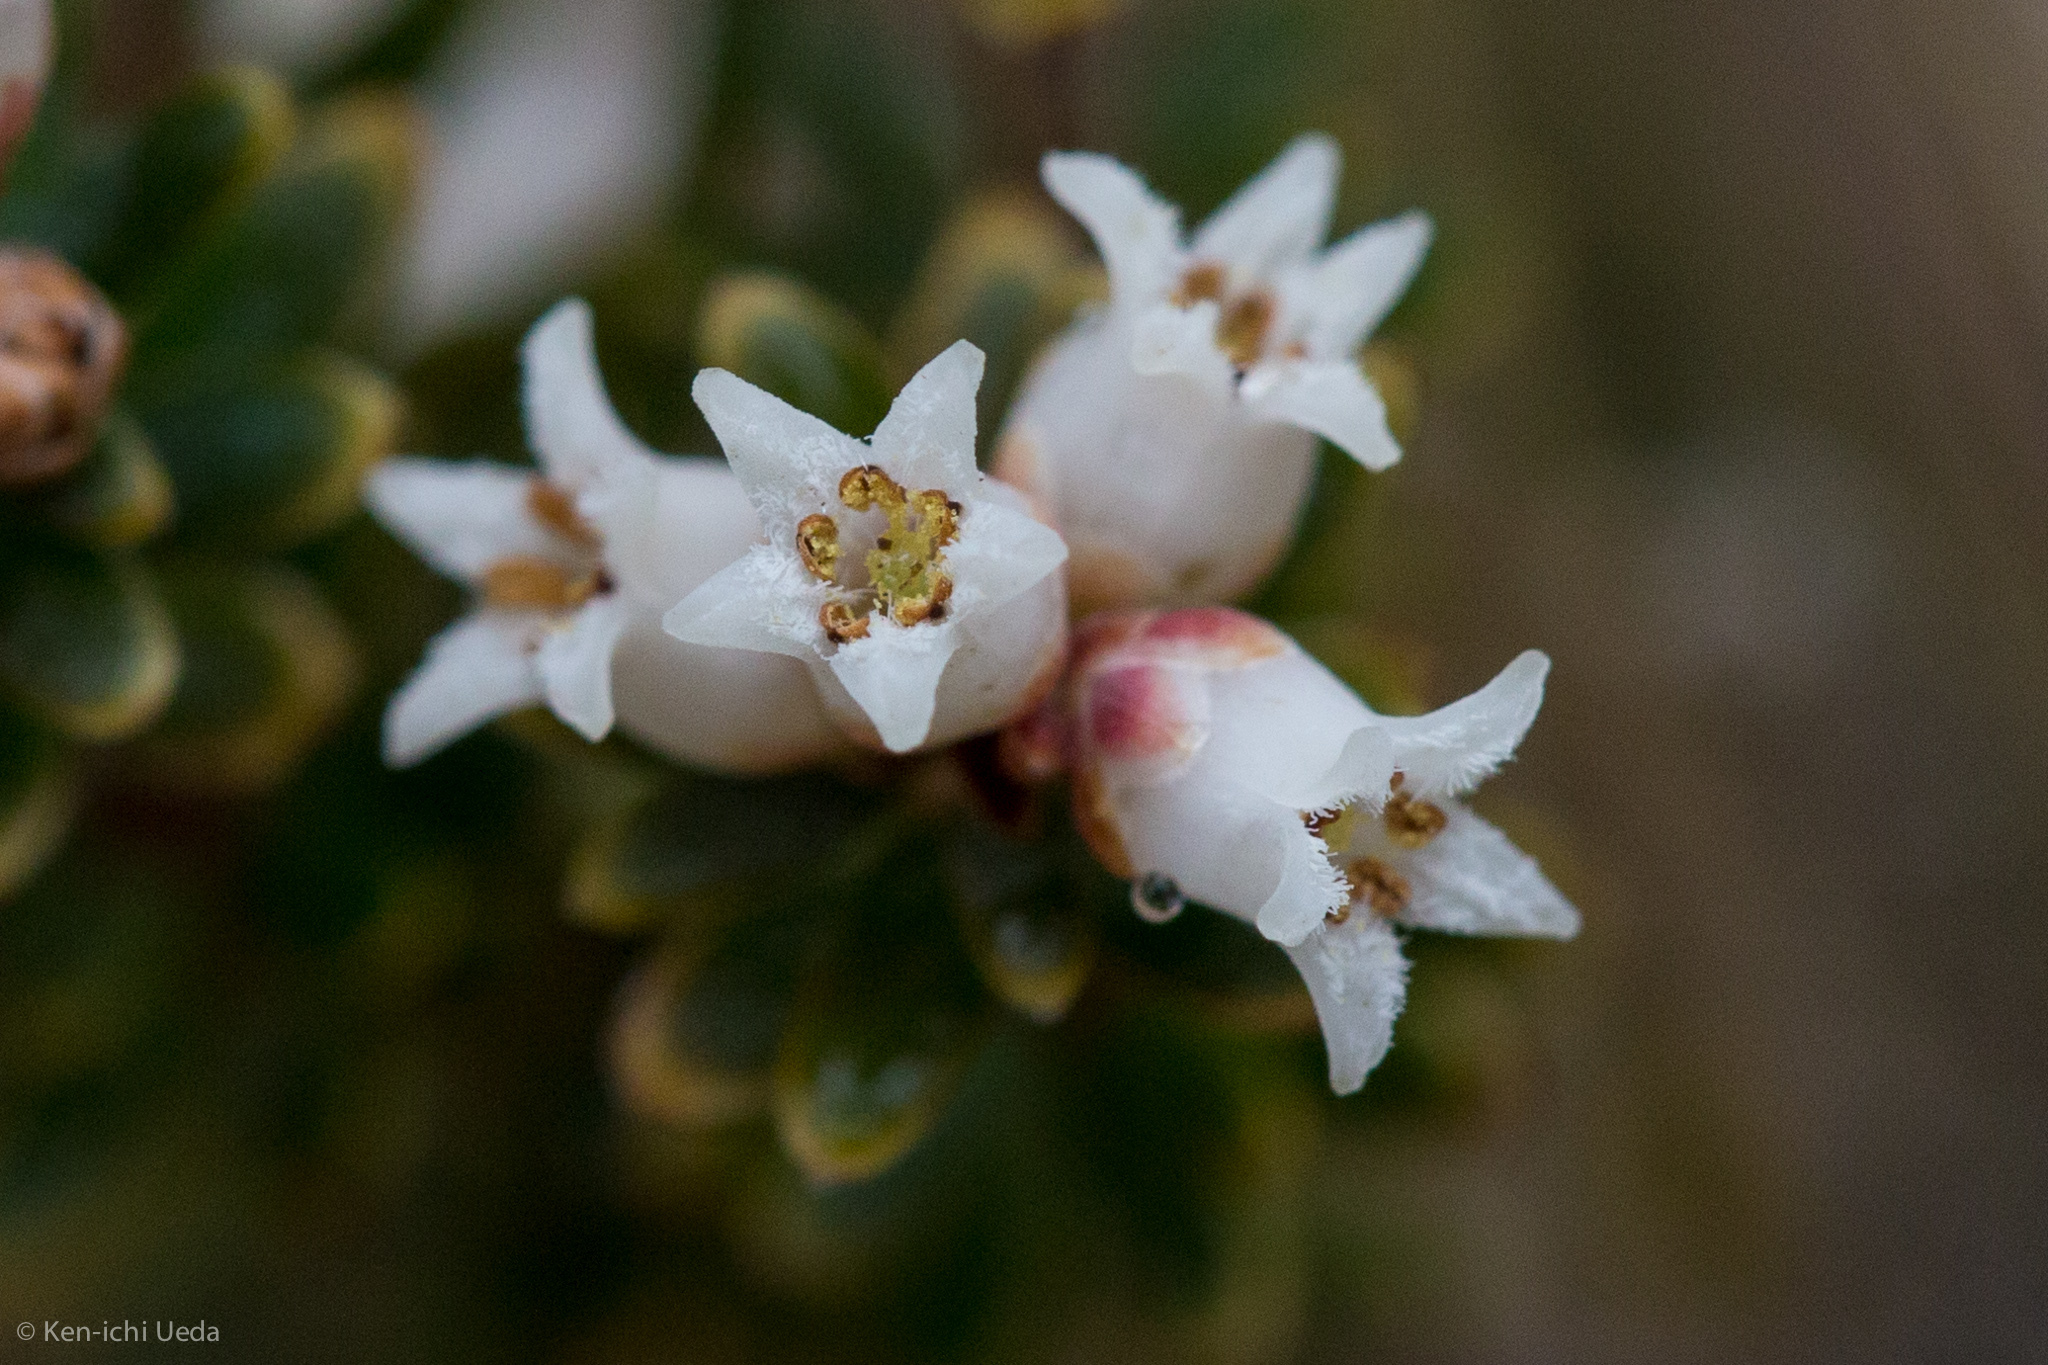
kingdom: Plantae
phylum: Tracheophyta
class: Magnoliopsida
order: Ericales
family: Ericaceae
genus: Acrothamnus
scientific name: Acrothamnus suaveolens
